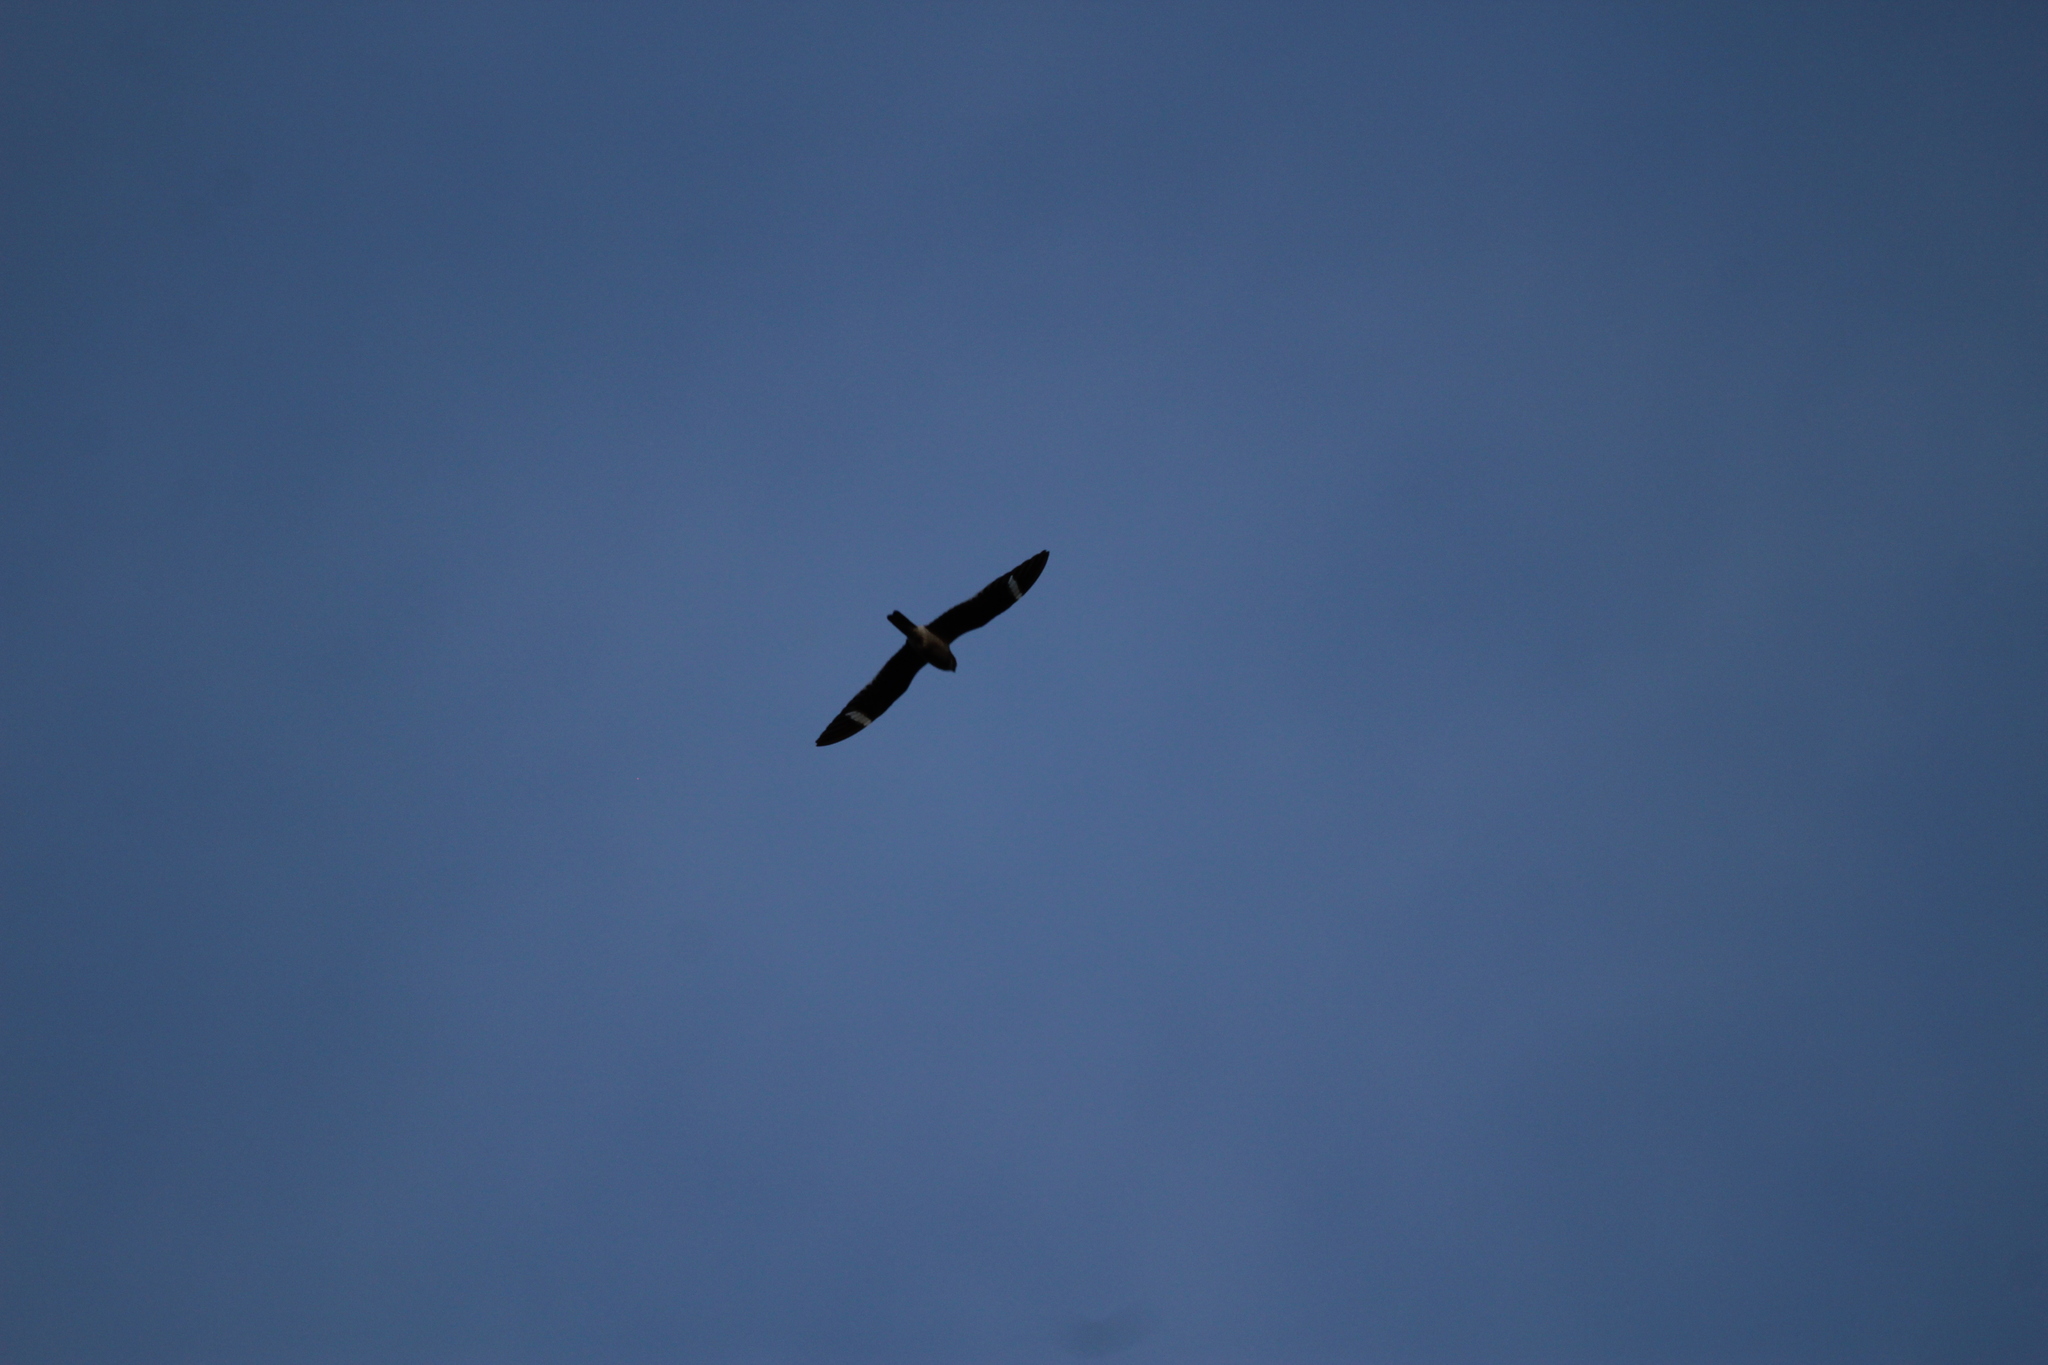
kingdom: Animalia
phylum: Chordata
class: Aves
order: Caprimulgiformes
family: Caprimulgidae
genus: Chordeiles
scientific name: Chordeiles minor
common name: Common nighthawk
